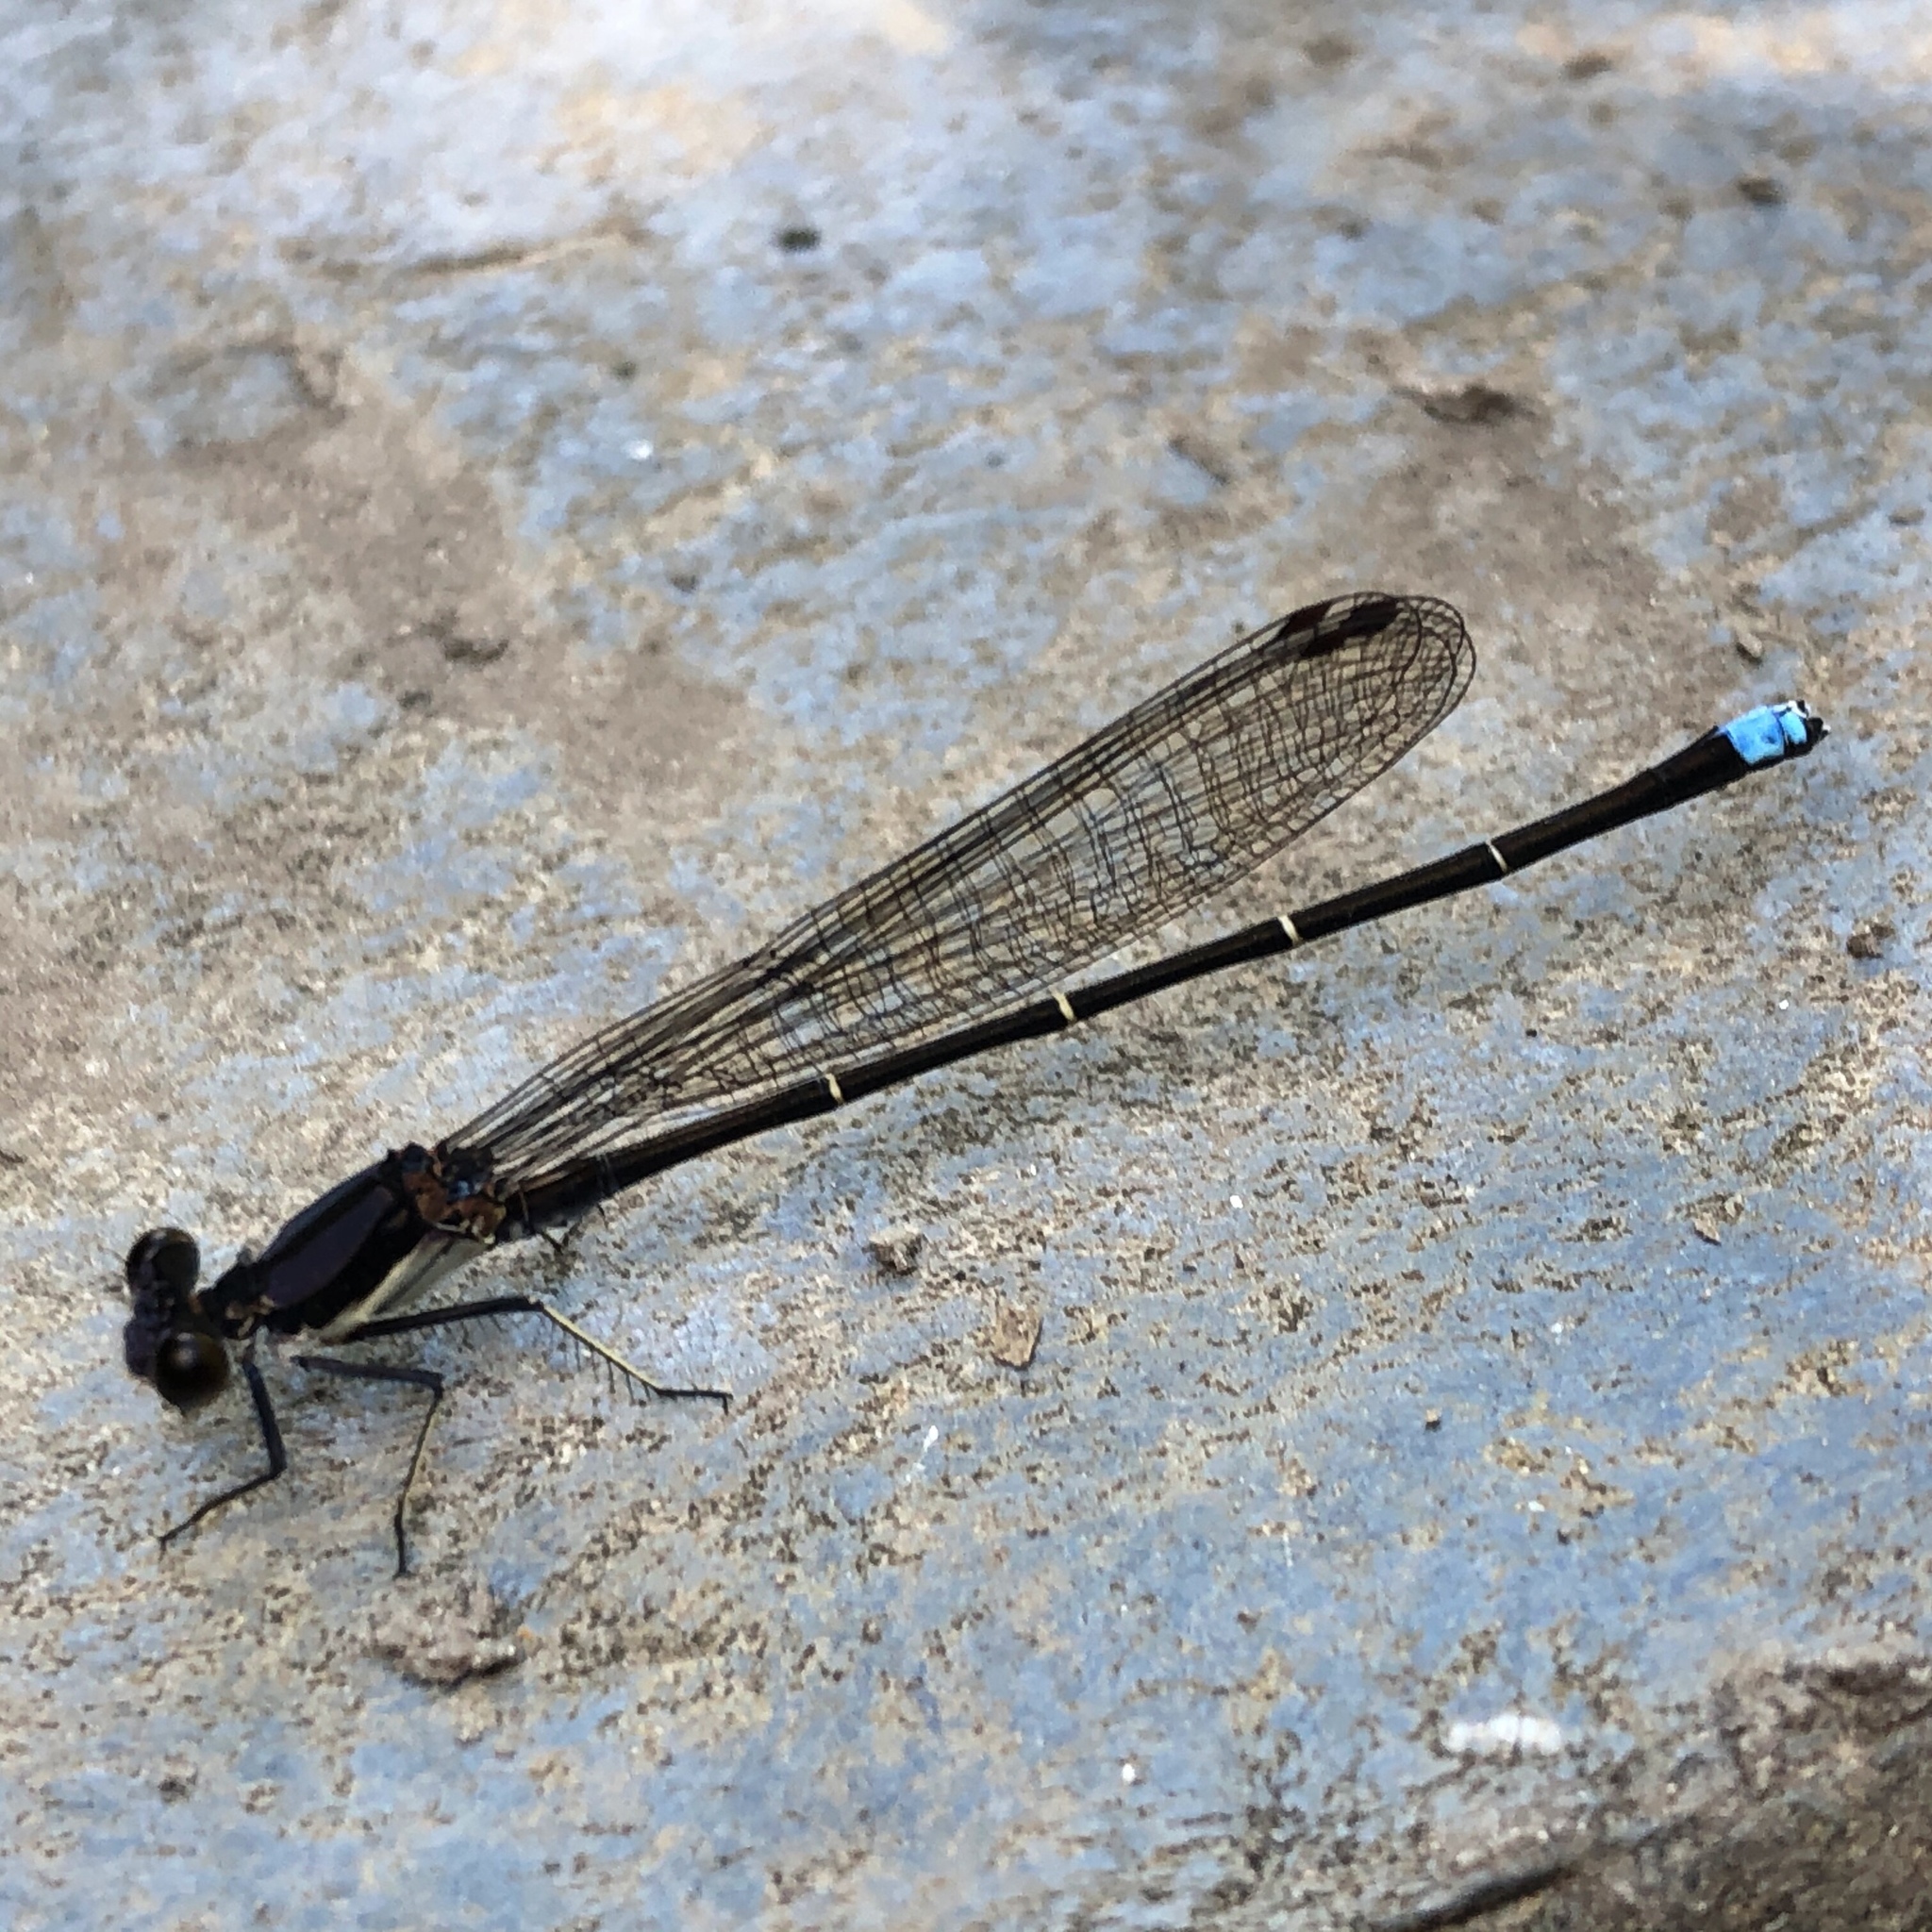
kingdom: Animalia
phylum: Arthropoda
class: Insecta
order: Odonata
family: Coenagrionidae
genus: Argia
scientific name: Argia tibialis
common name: Blue-tipped dancer
